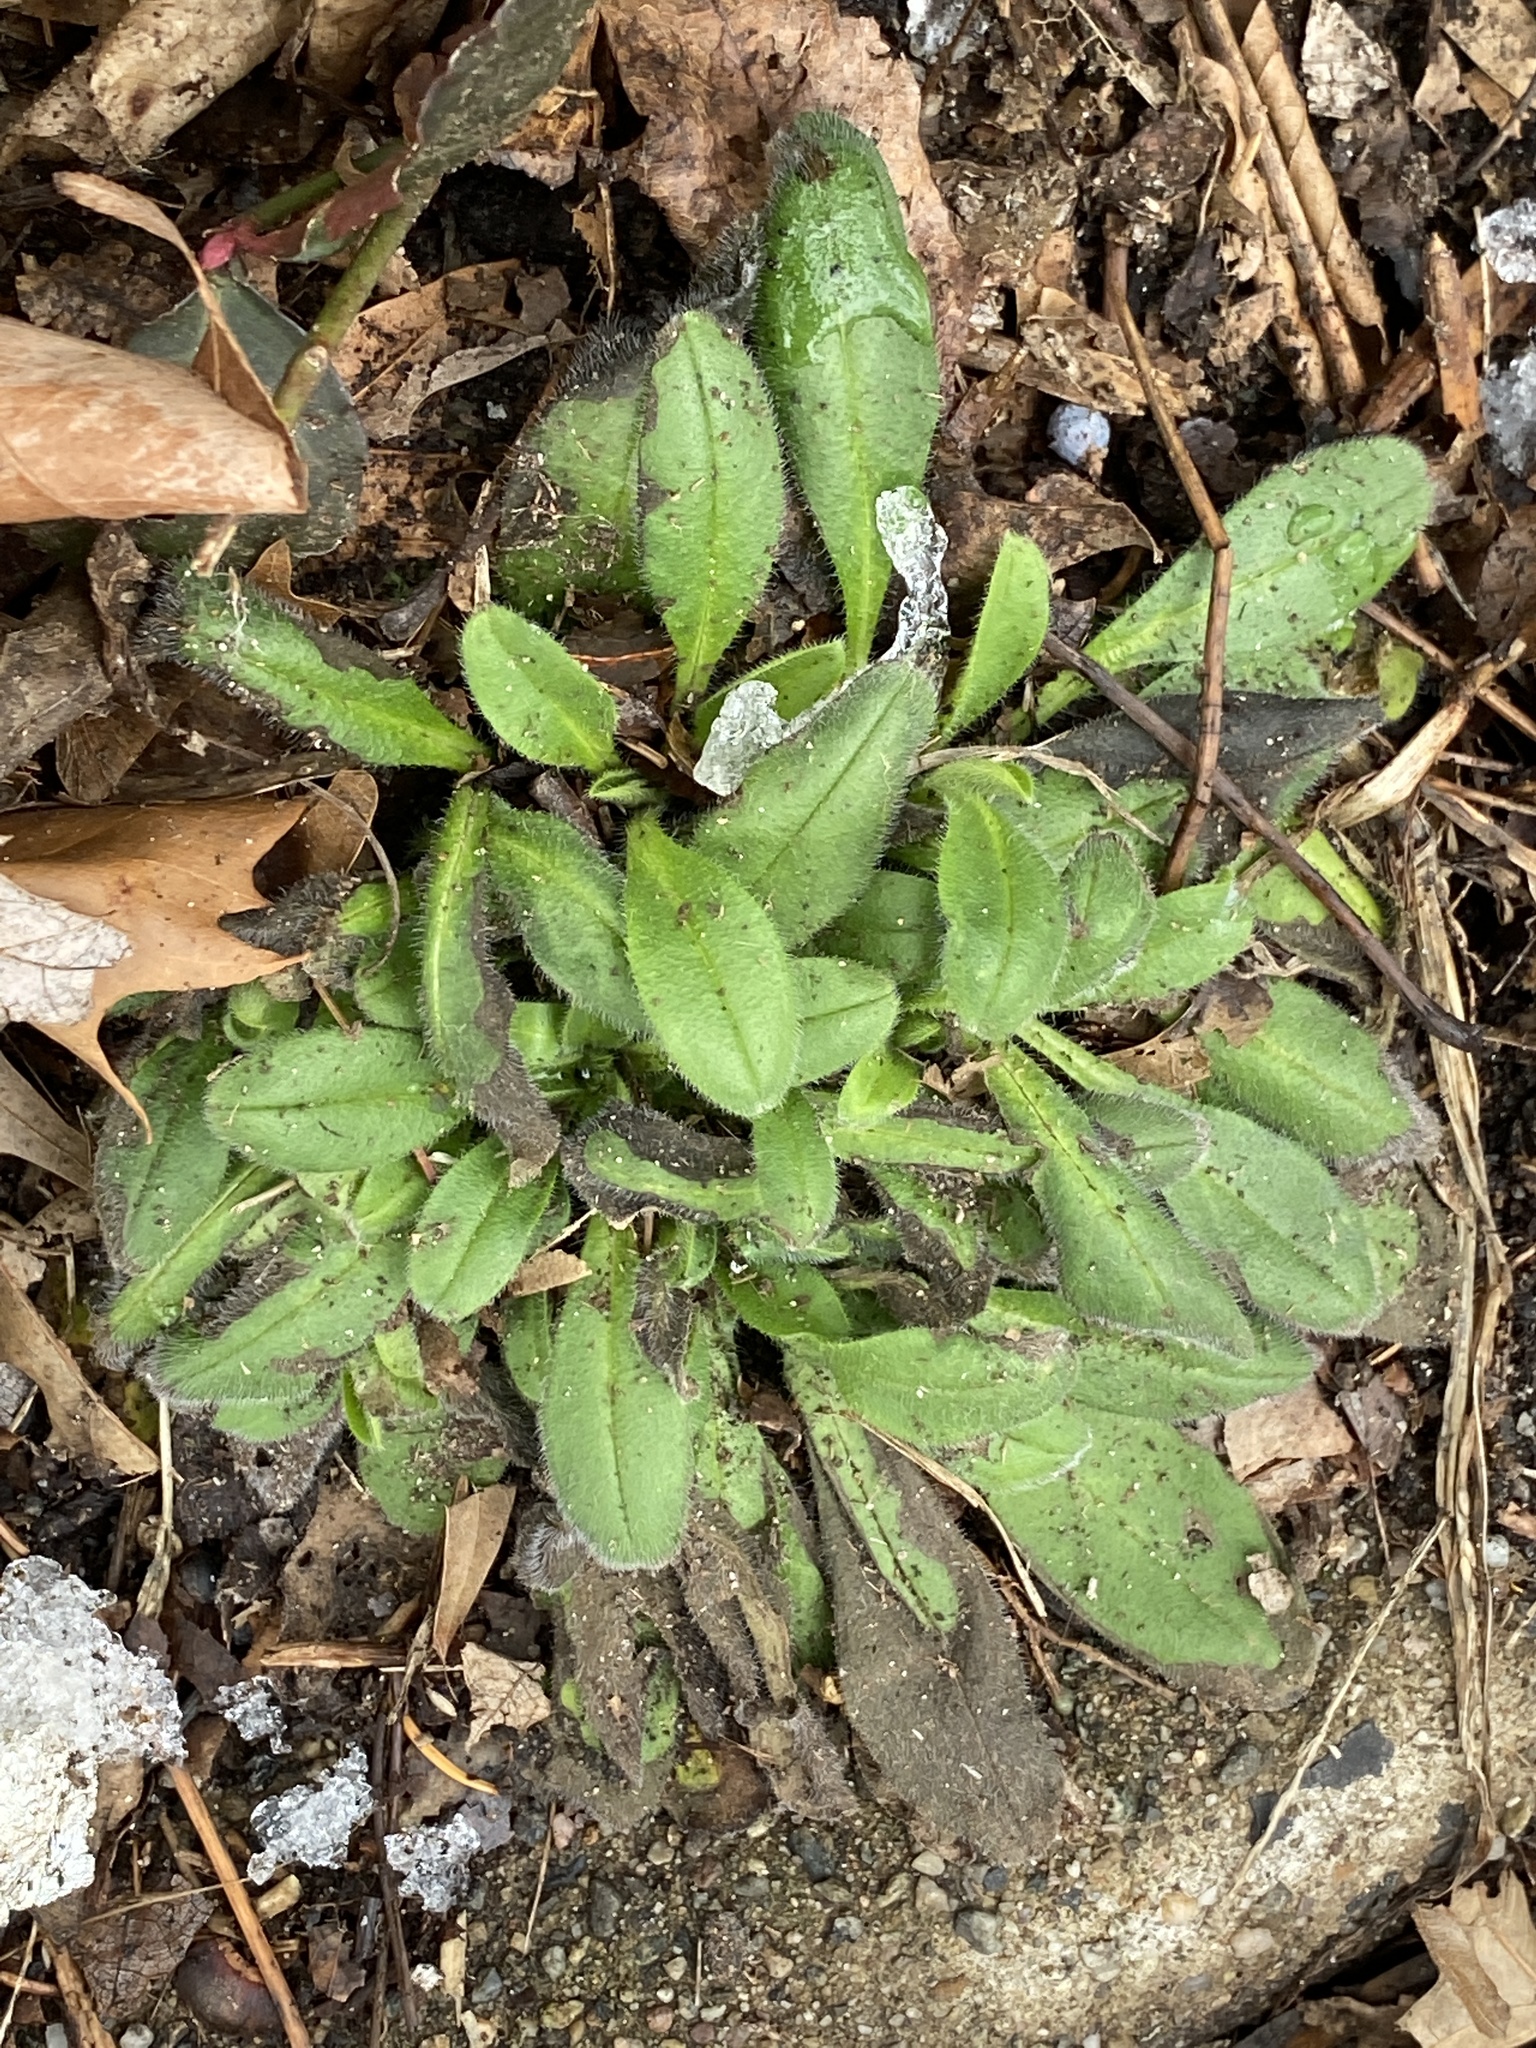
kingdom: Plantae
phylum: Tracheophyta
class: Magnoliopsida
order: Asterales
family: Asteraceae
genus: Rudbeckia
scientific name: Rudbeckia hirta
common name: Black-eyed-susan
